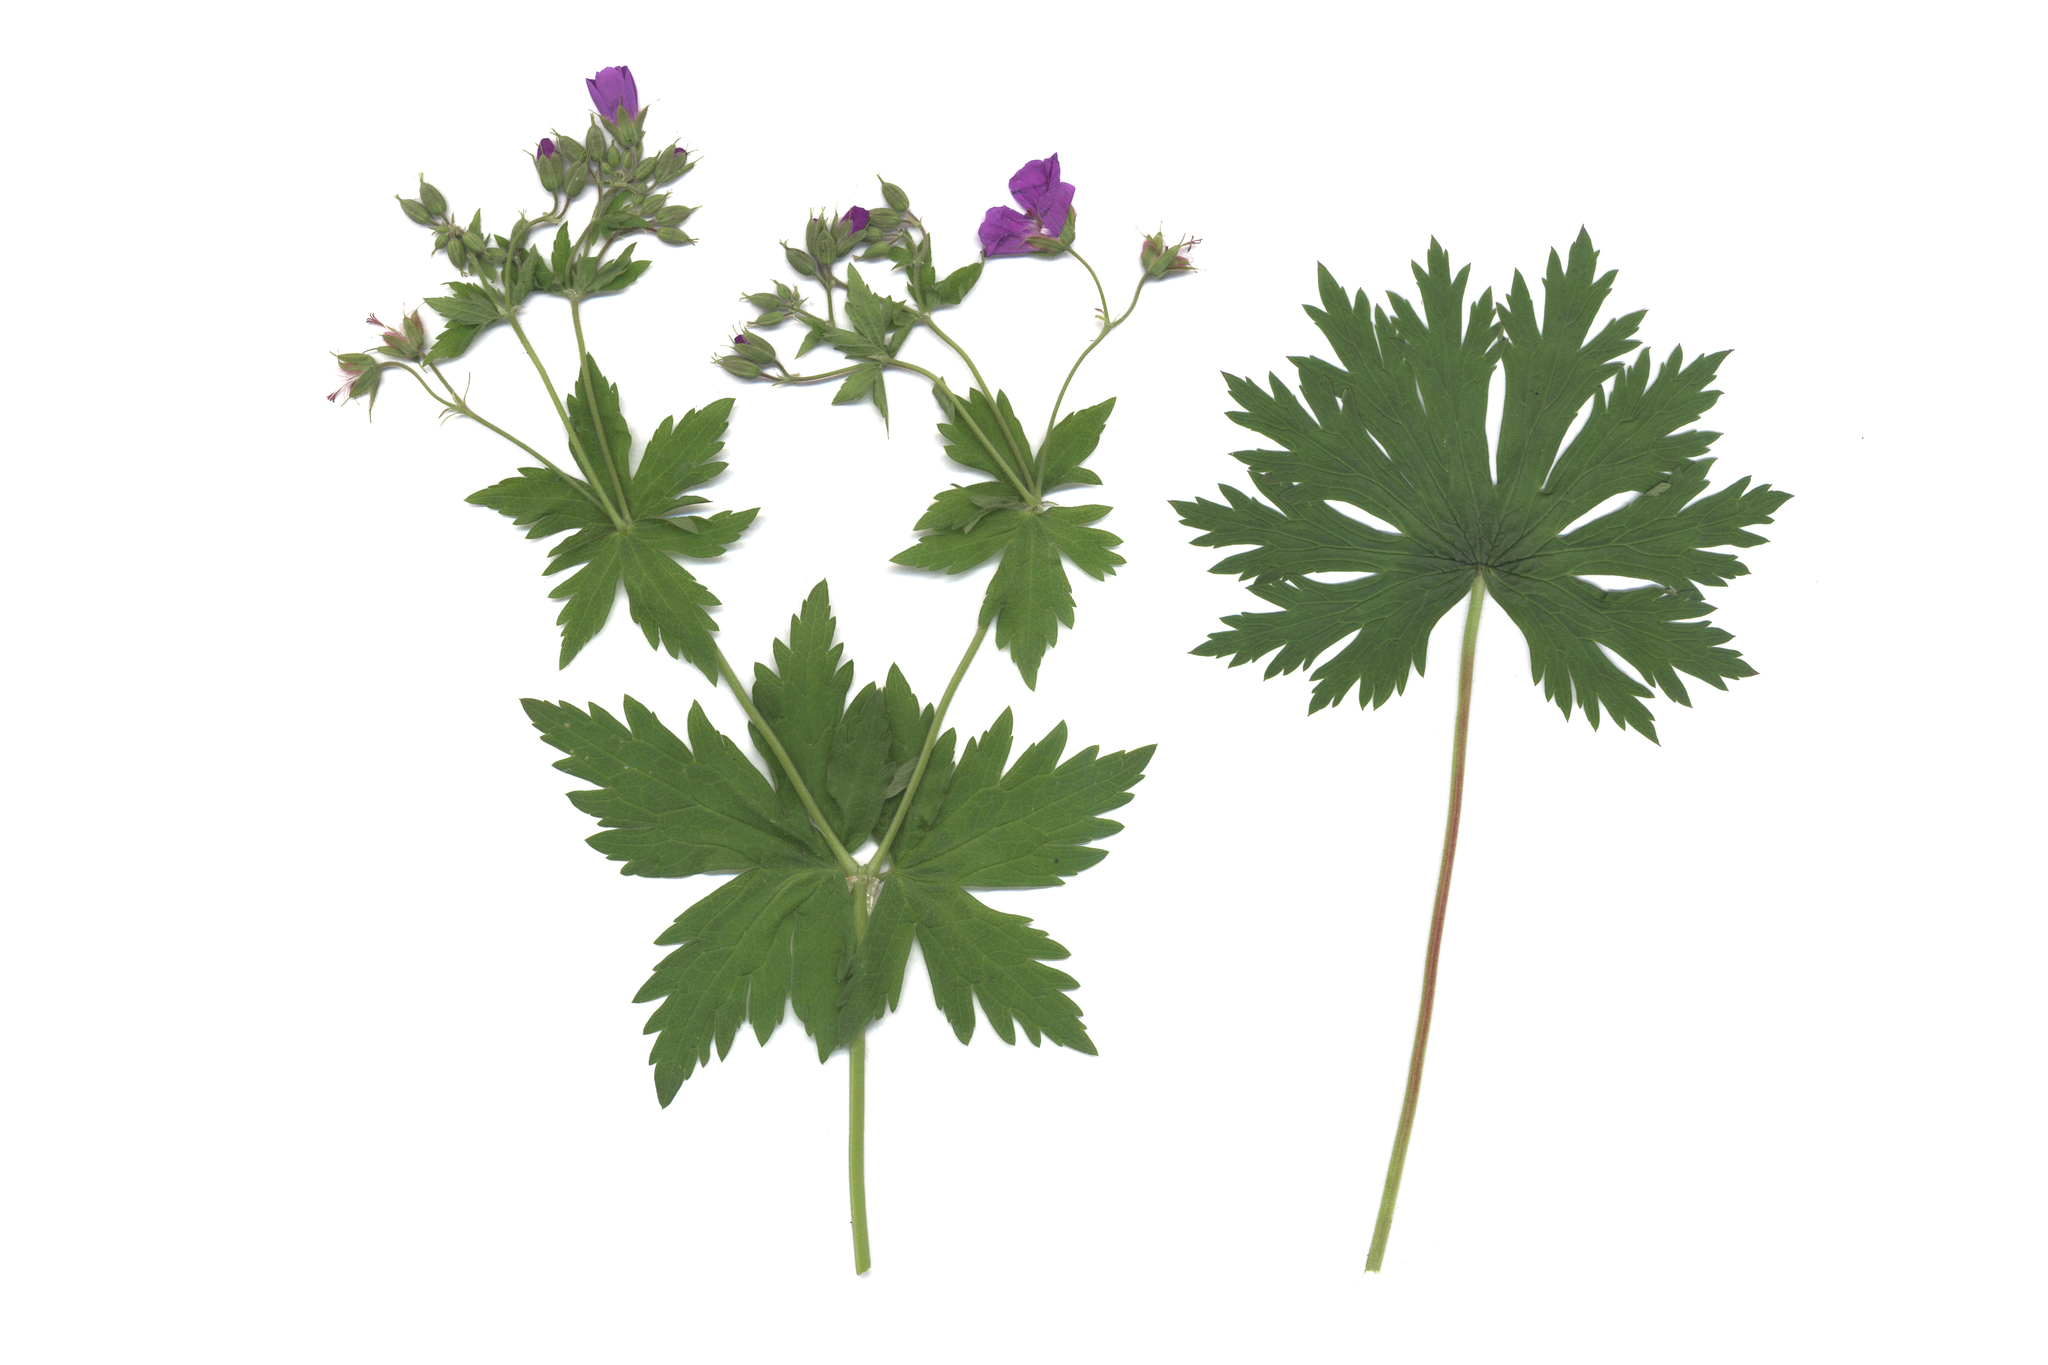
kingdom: Plantae
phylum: Tracheophyta
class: Magnoliopsida
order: Geraniales
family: Geraniaceae
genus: Geranium
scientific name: Geranium sylvaticum
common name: Wood crane's-bill
